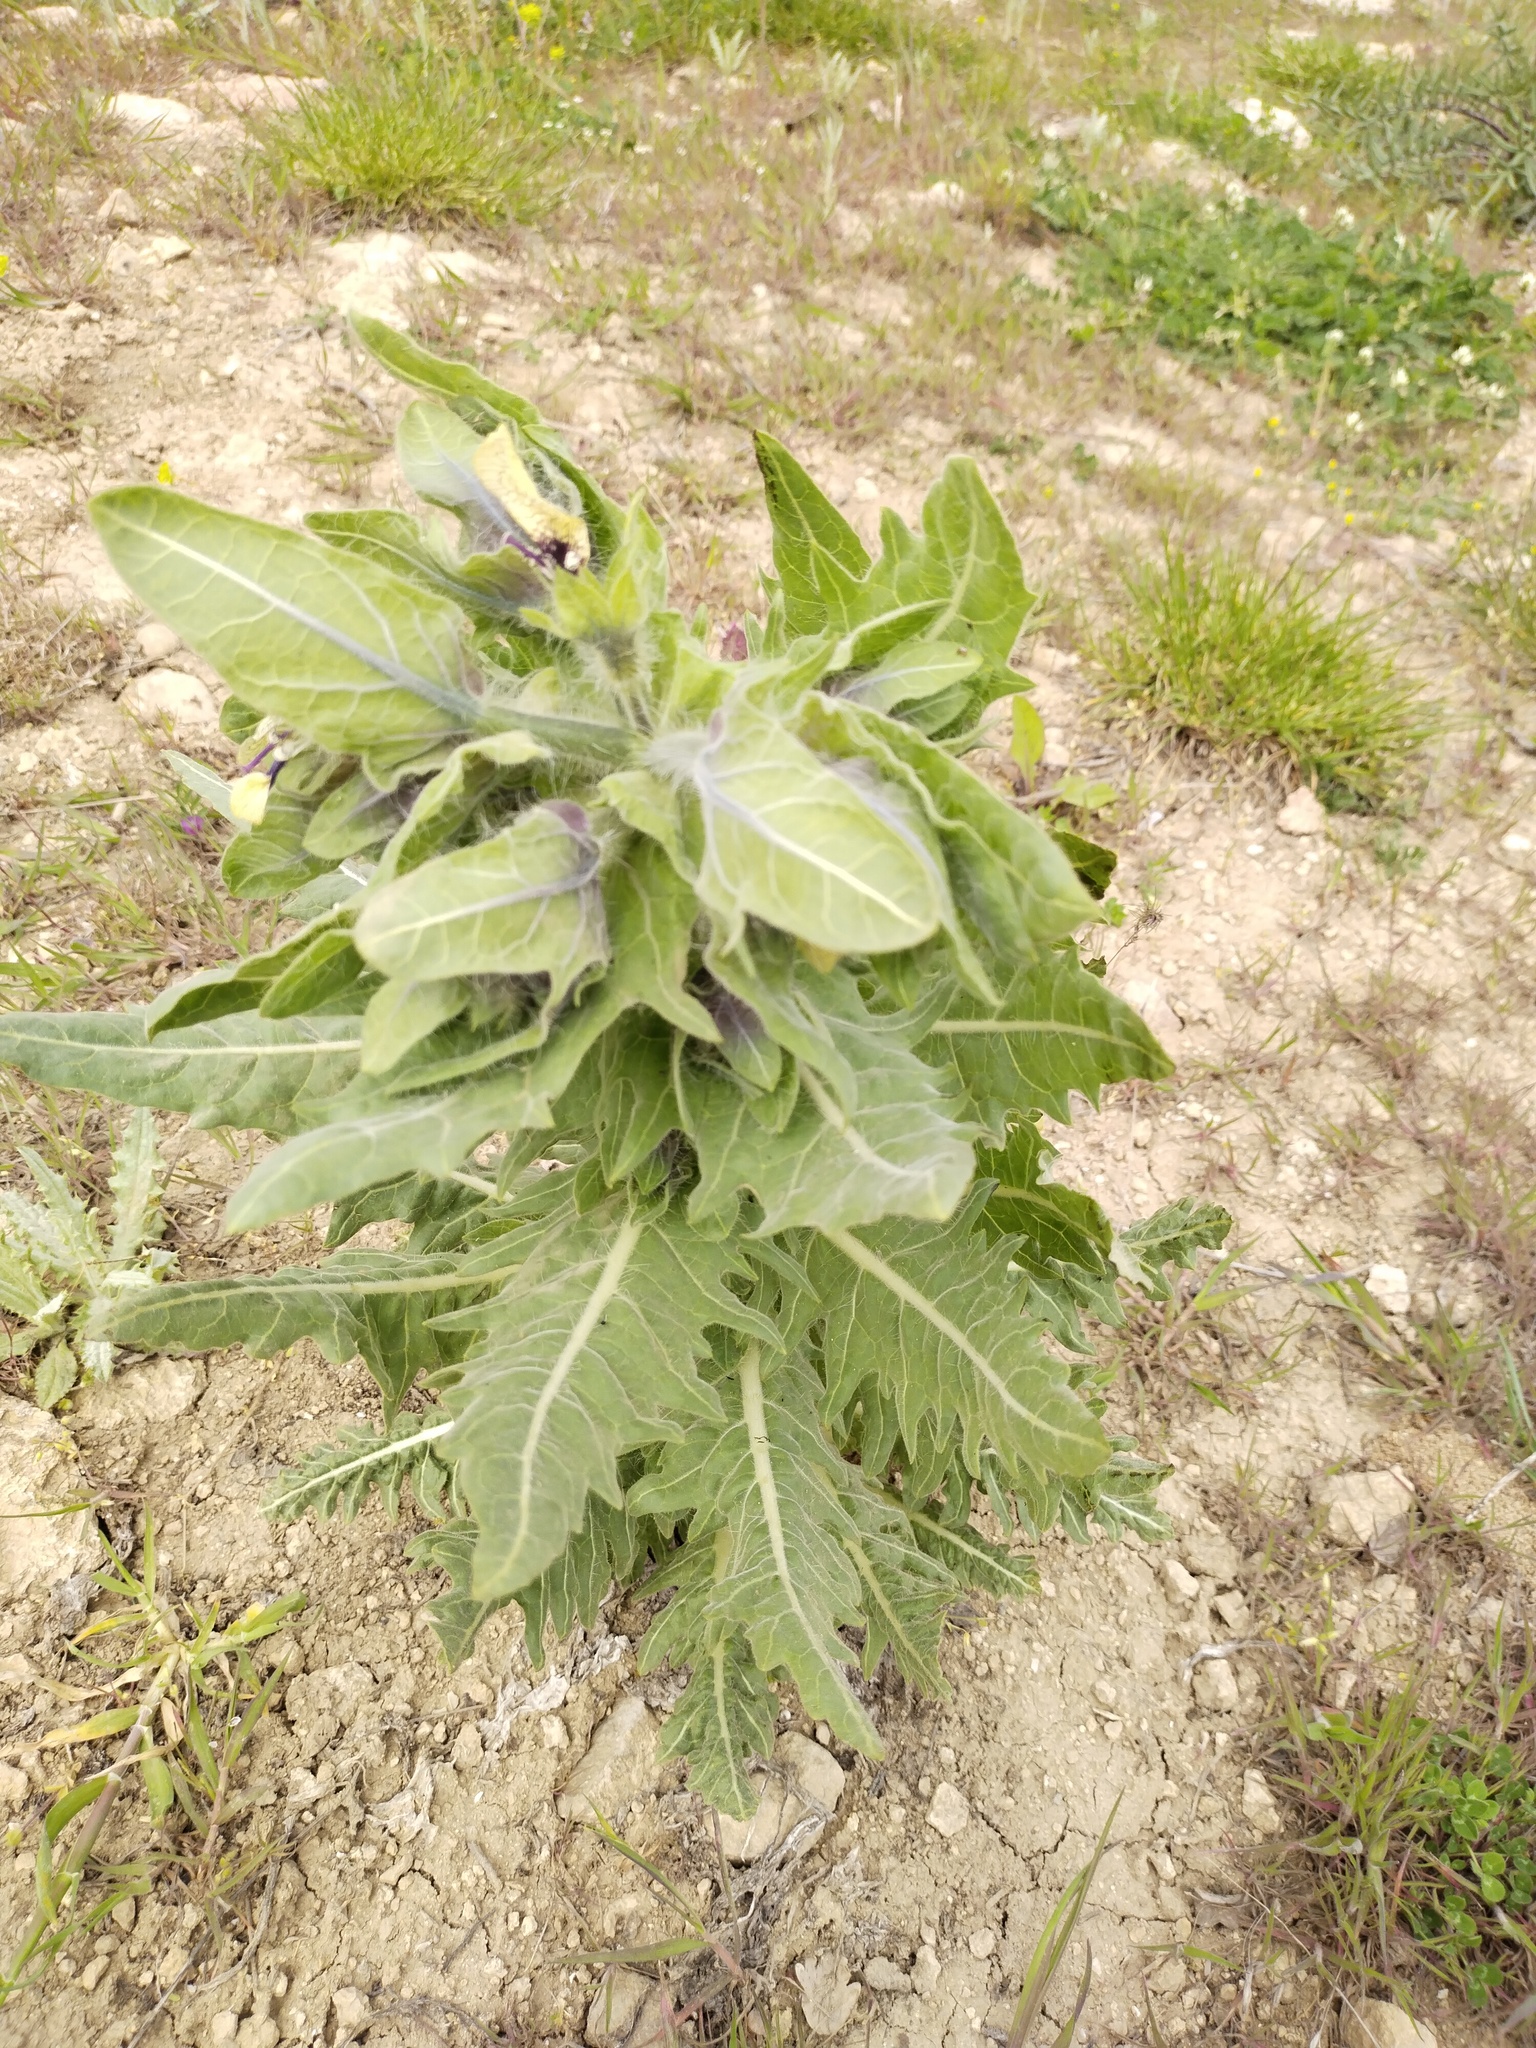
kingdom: Plantae
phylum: Tracheophyta
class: Magnoliopsida
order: Solanales
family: Solanaceae
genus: Hyoscyamus
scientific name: Hyoscyamus niger
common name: Henbane
